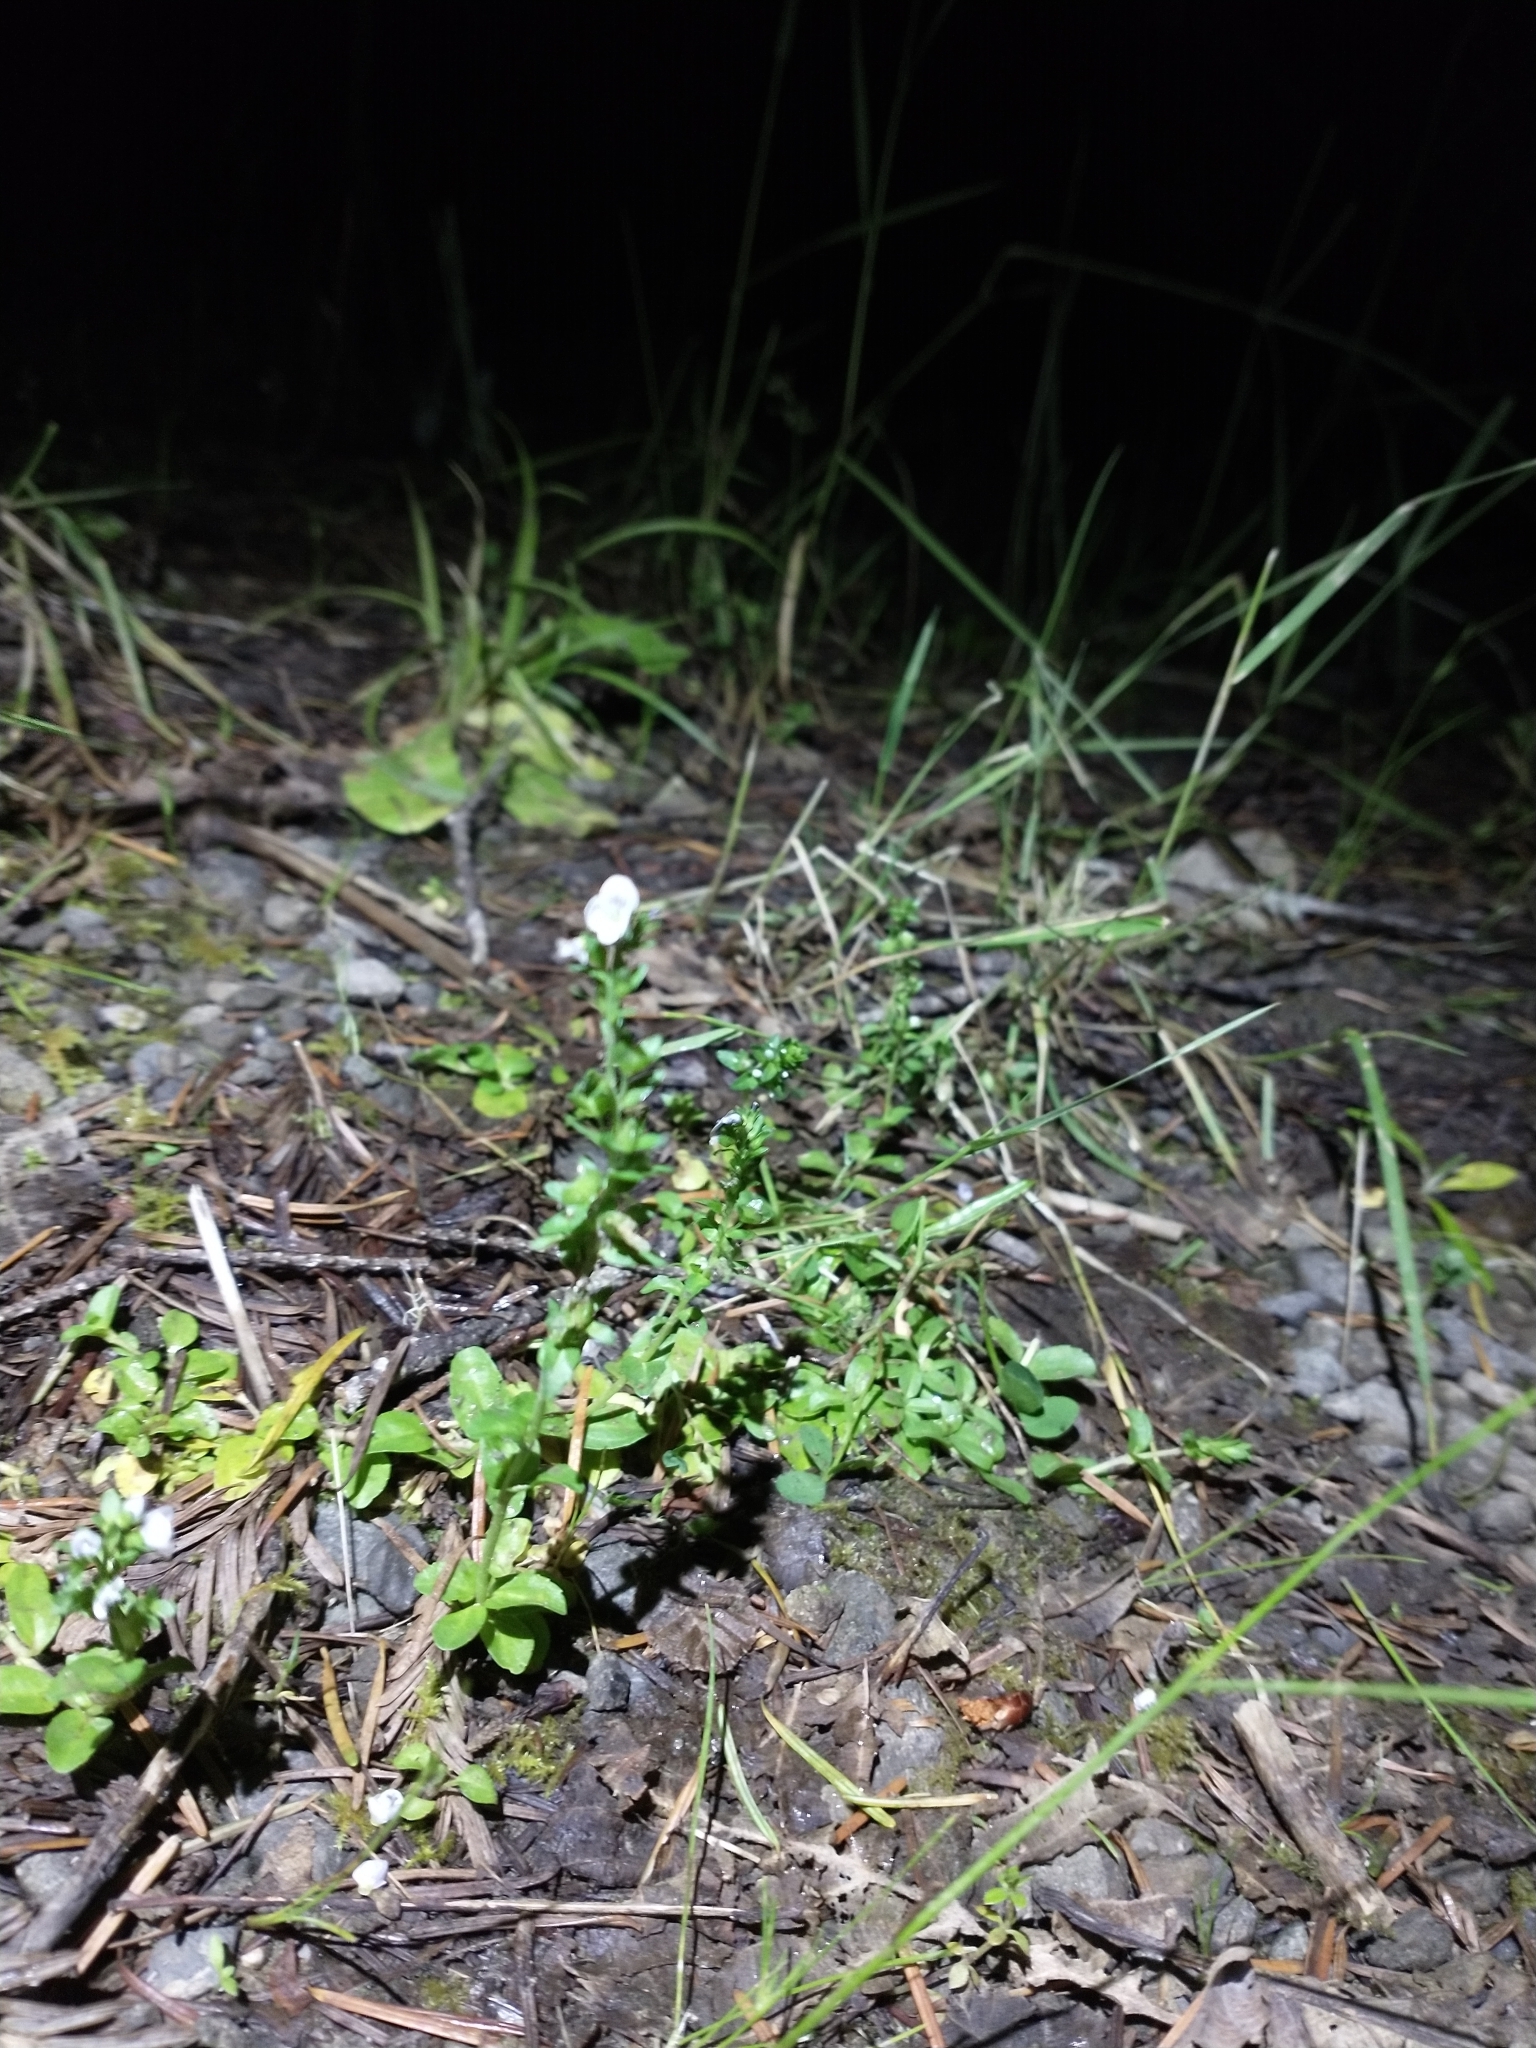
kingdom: Plantae
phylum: Tracheophyta
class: Magnoliopsida
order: Lamiales
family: Plantaginaceae
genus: Veronica
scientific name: Veronica serpyllifolia
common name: Thyme-leaved speedwell
